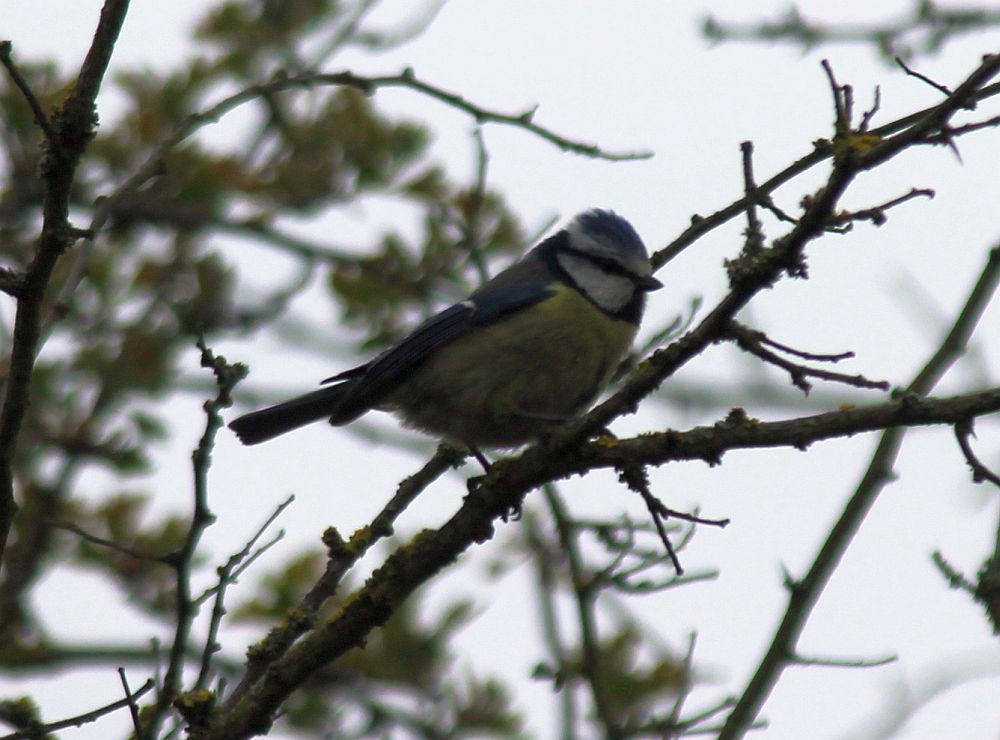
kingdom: Animalia
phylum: Chordata
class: Aves
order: Passeriformes
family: Paridae
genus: Cyanistes
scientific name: Cyanistes caeruleus
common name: Eurasian blue tit
